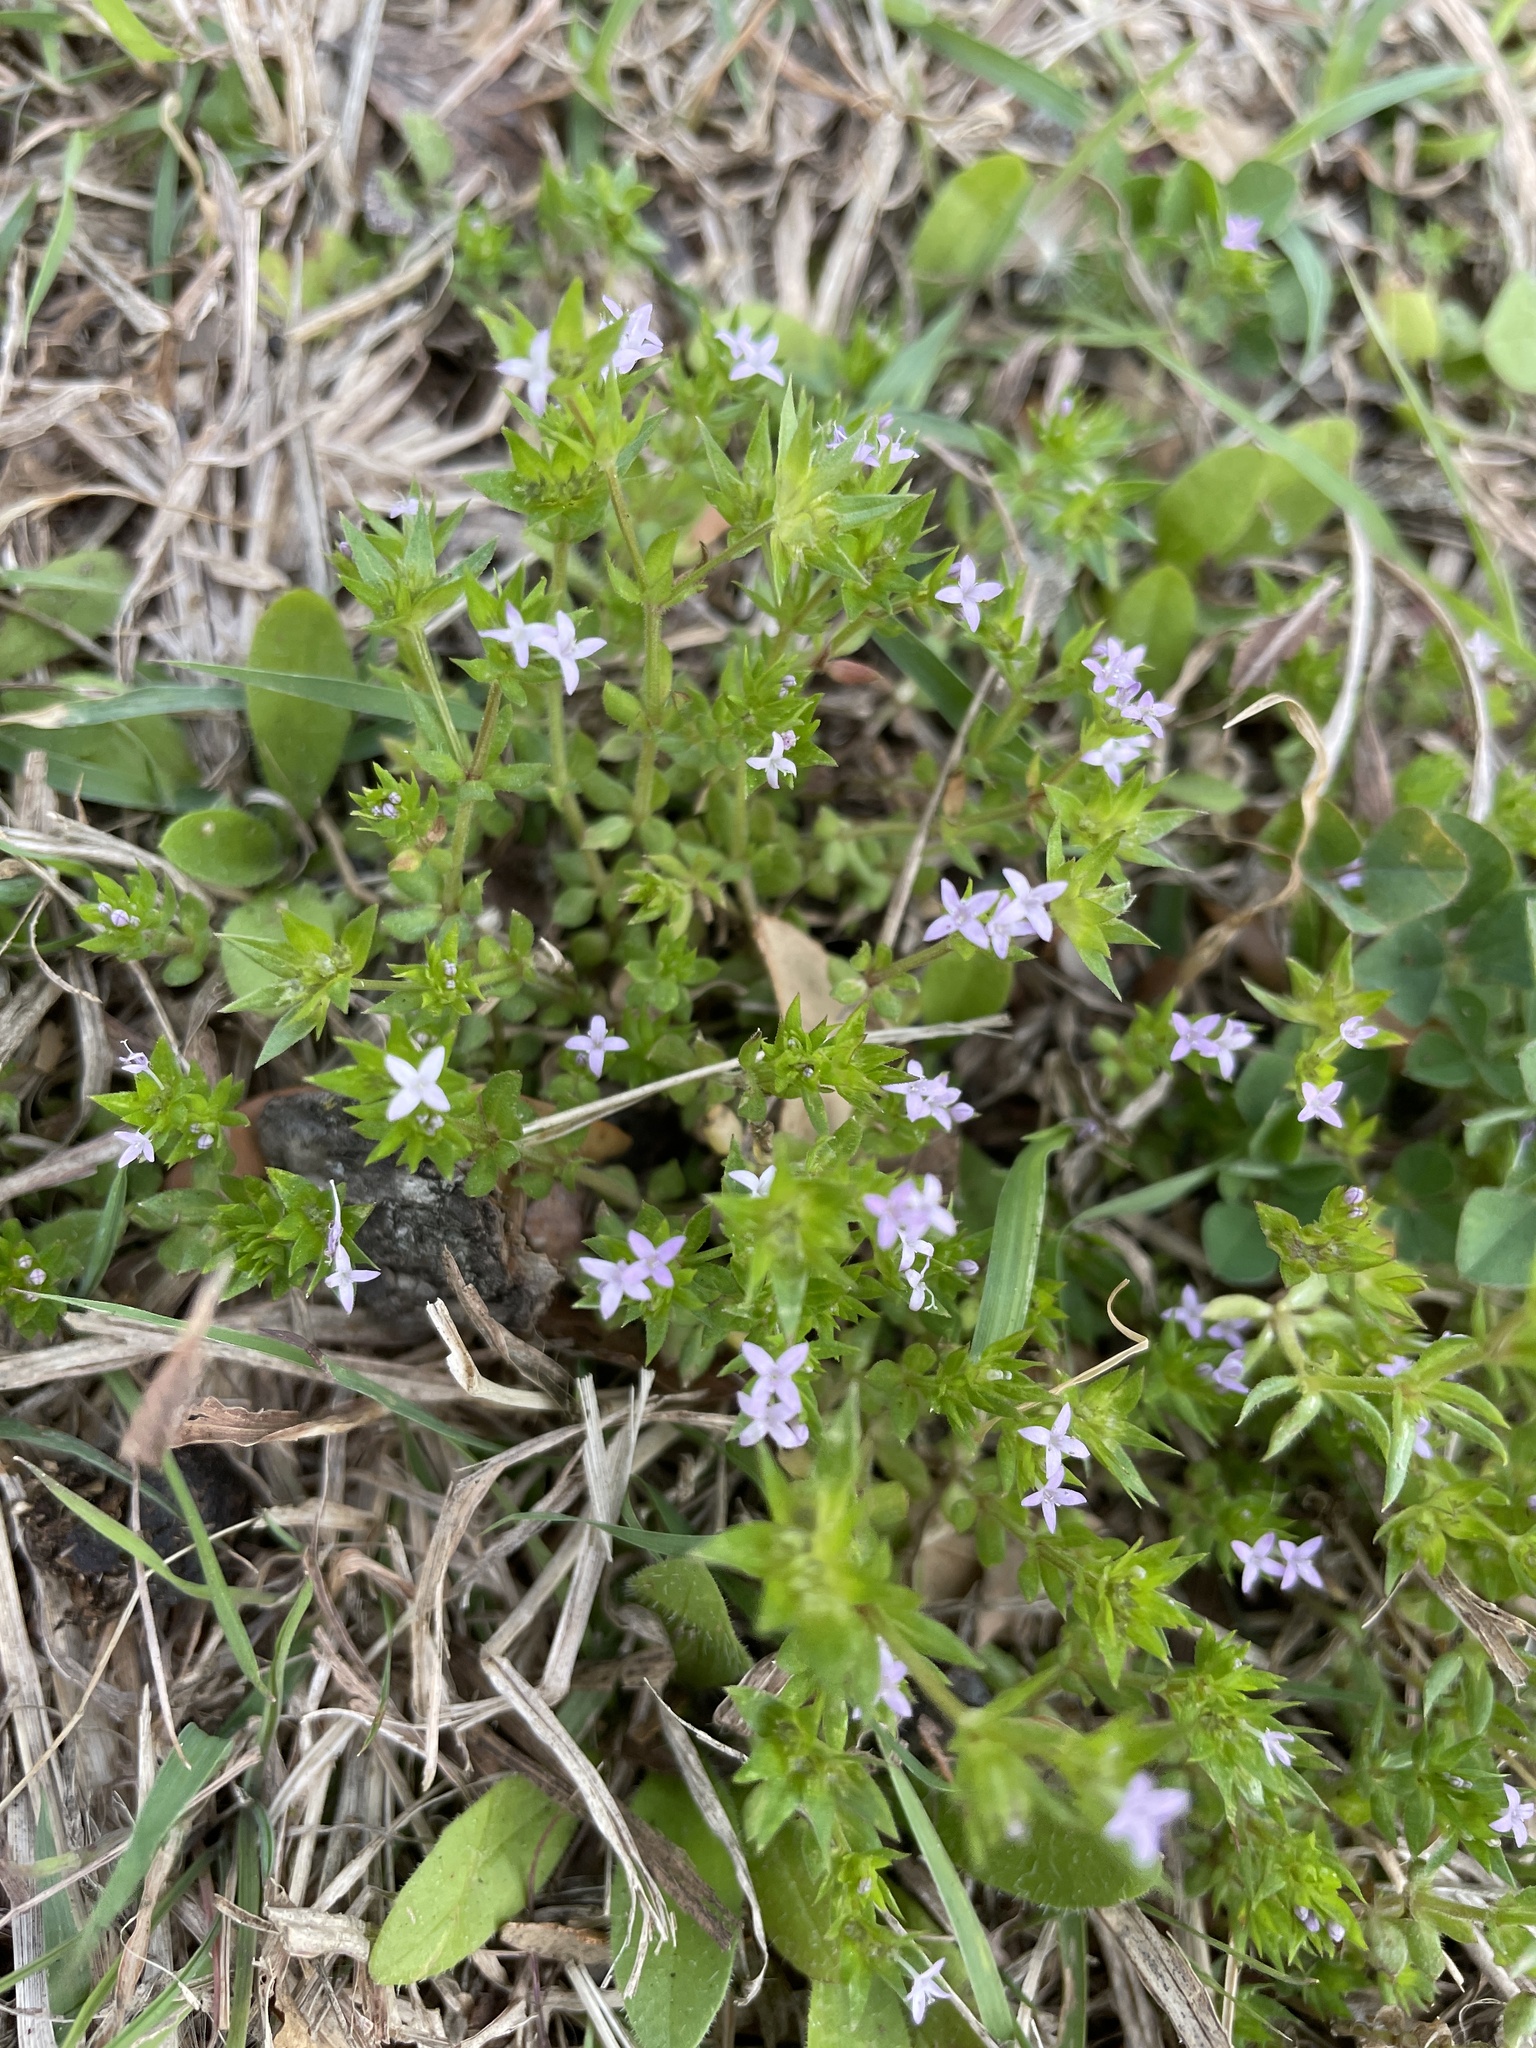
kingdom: Plantae
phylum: Tracheophyta
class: Magnoliopsida
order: Gentianales
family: Rubiaceae
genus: Sherardia
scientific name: Sherardia arvensis
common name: Field madder
